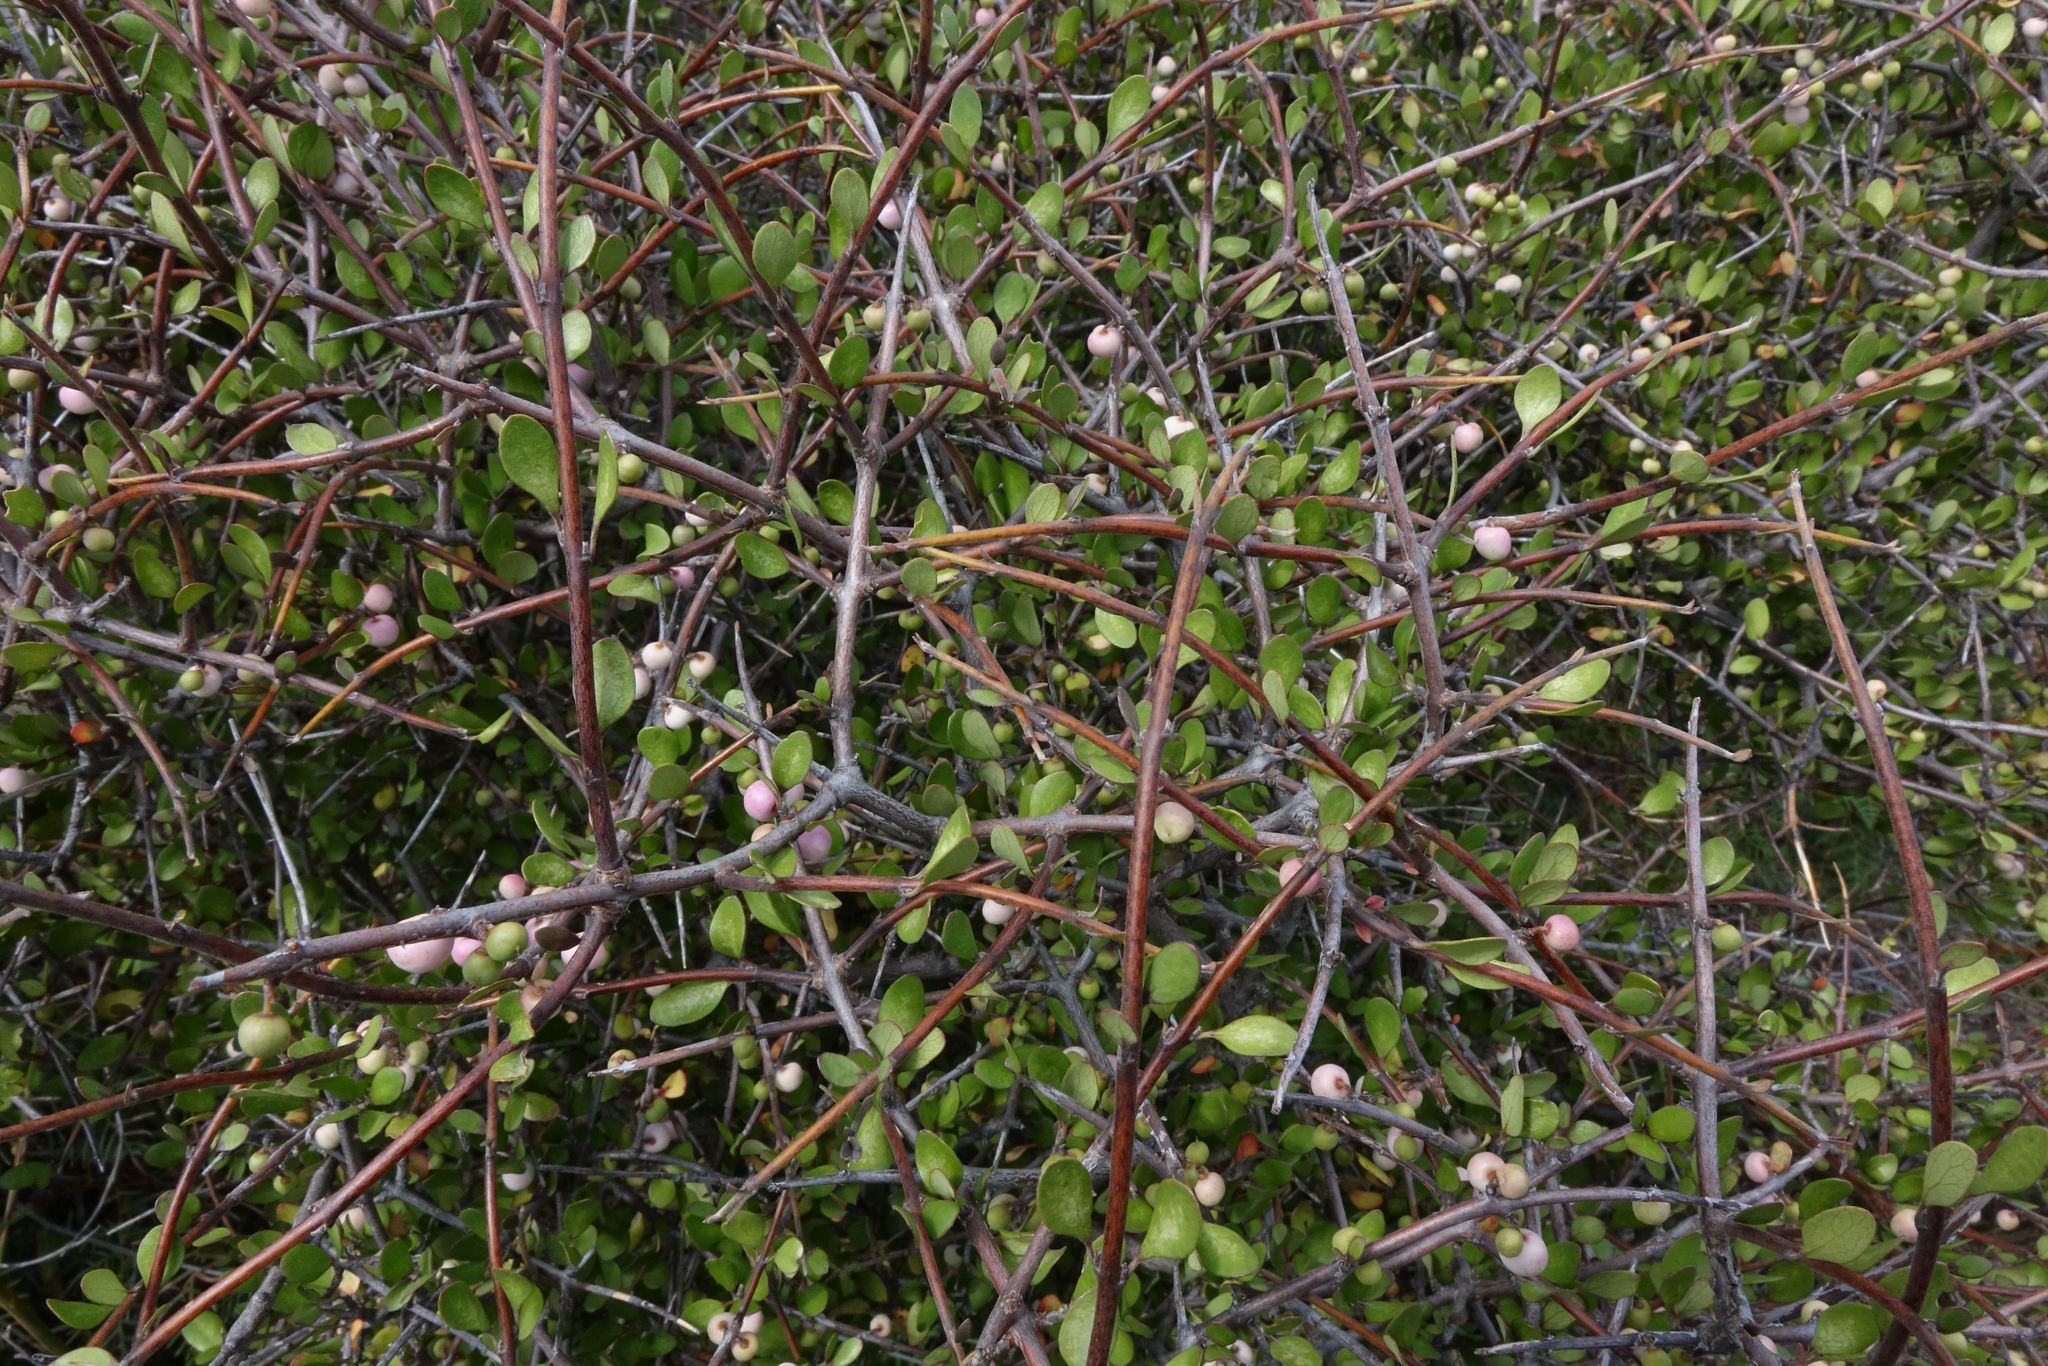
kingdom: Plantae
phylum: Tracheophyta
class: Magnoliopsida
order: Oxalidales
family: Elaeocarpaceae
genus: Aristotelia
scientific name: Aristotelia fruticosa
